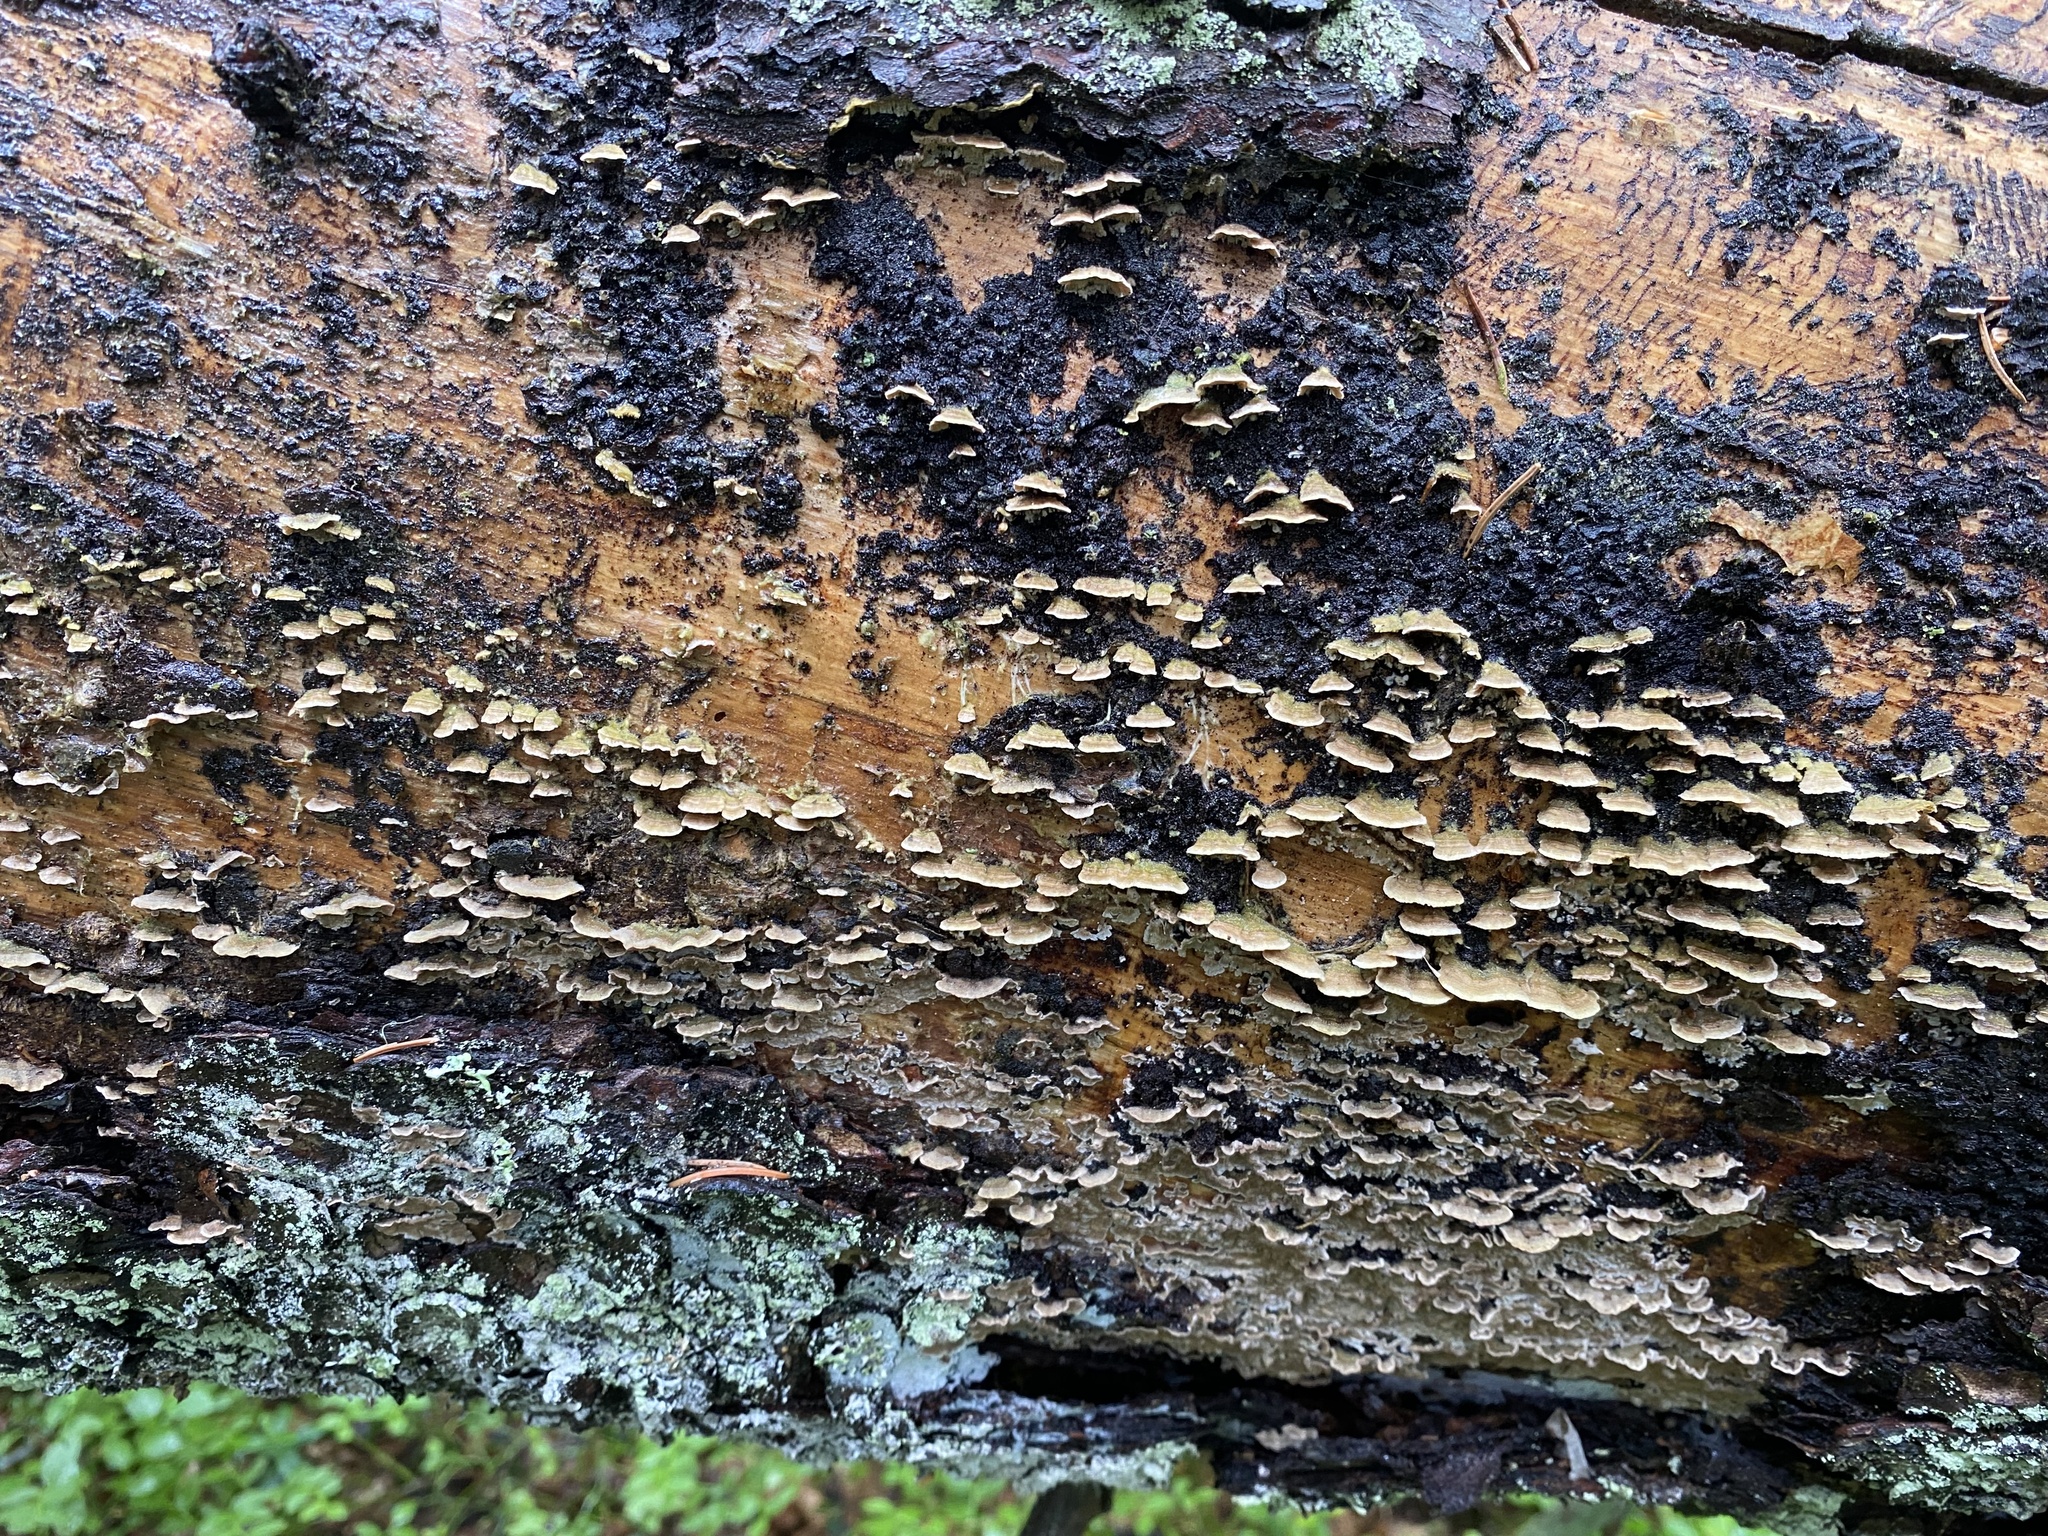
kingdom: Fungi
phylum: Basidiomycota
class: Agaricomycetes
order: Hymenochaetales
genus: Trichaptum
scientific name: Trichaptum abietinum
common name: Purplepore bracket
